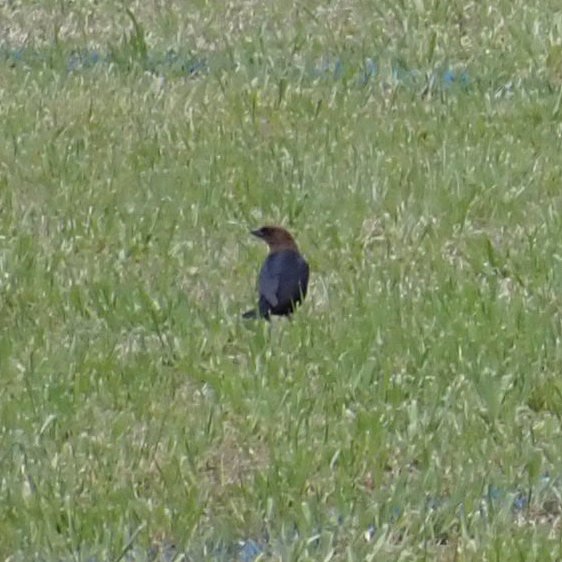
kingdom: Animalia
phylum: Chordata
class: Aves
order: Passeriformes
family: Icteridae
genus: Molothrus
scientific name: Molothrus ater
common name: Brown-headed cowbird
